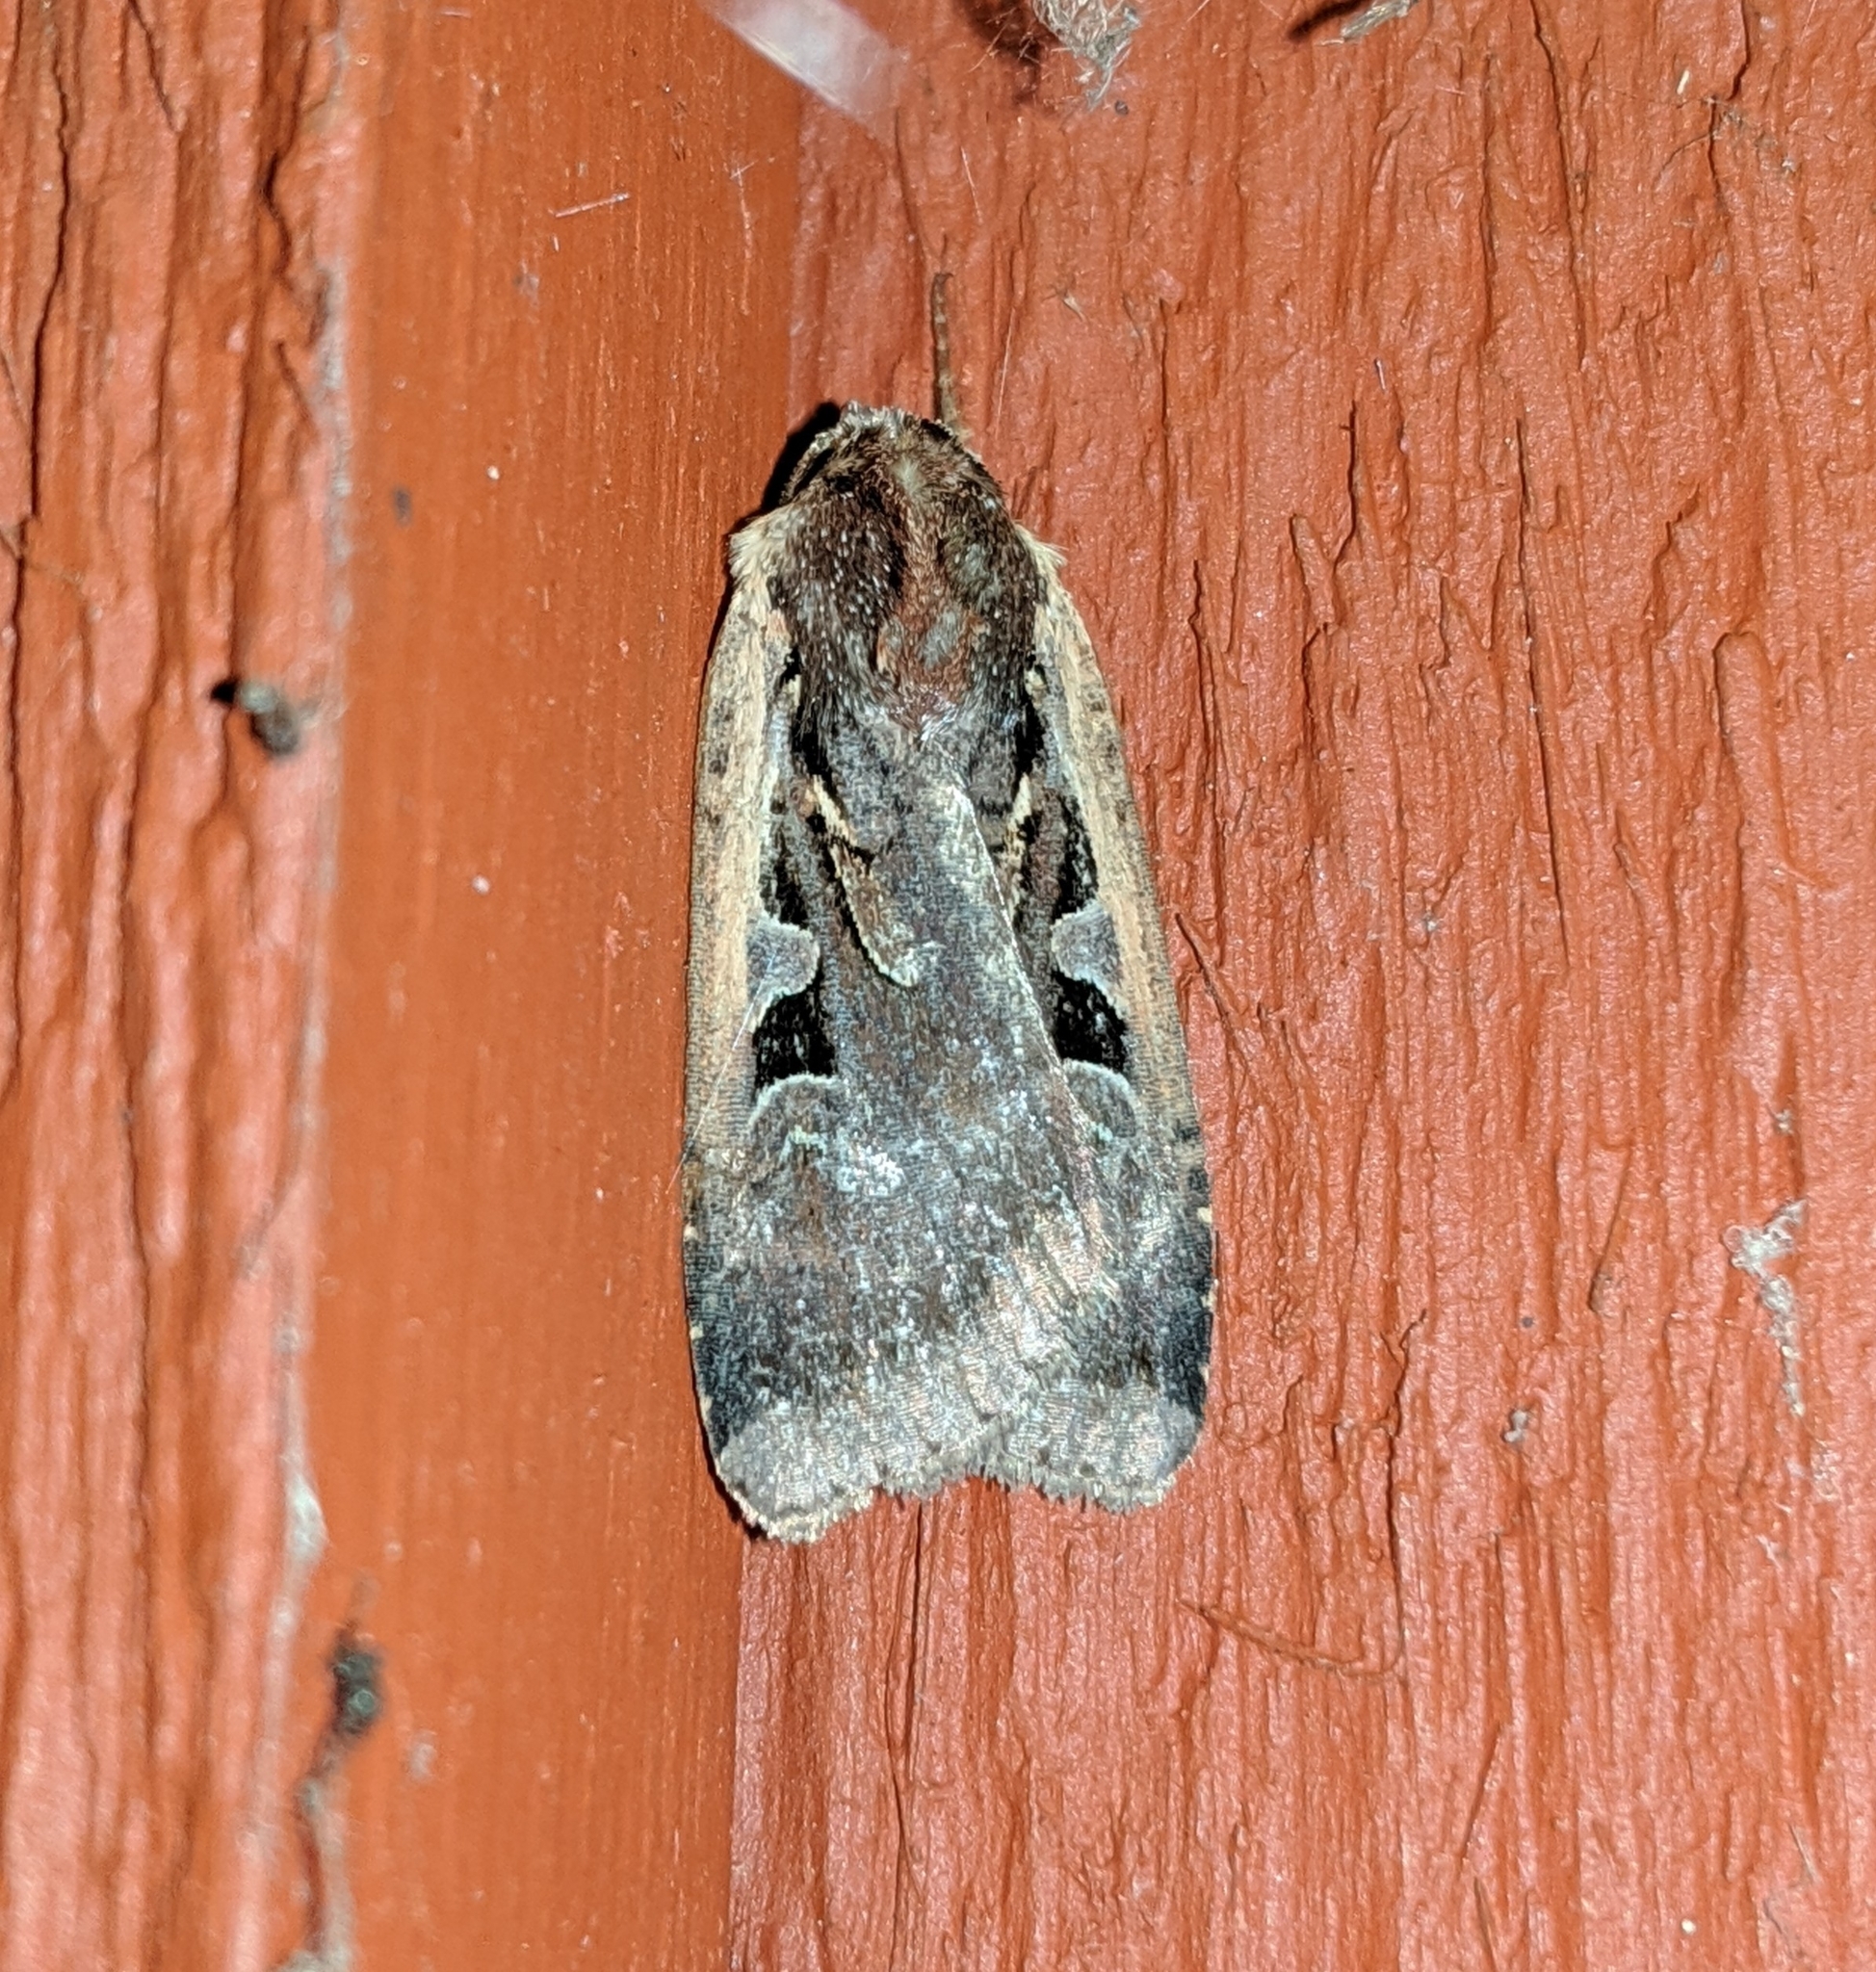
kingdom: Animalia
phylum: Arthropoda
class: Insecta
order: Lepidoptera
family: Noctuidae
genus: Parabagrotis
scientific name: Parabagrotis sulinaris
